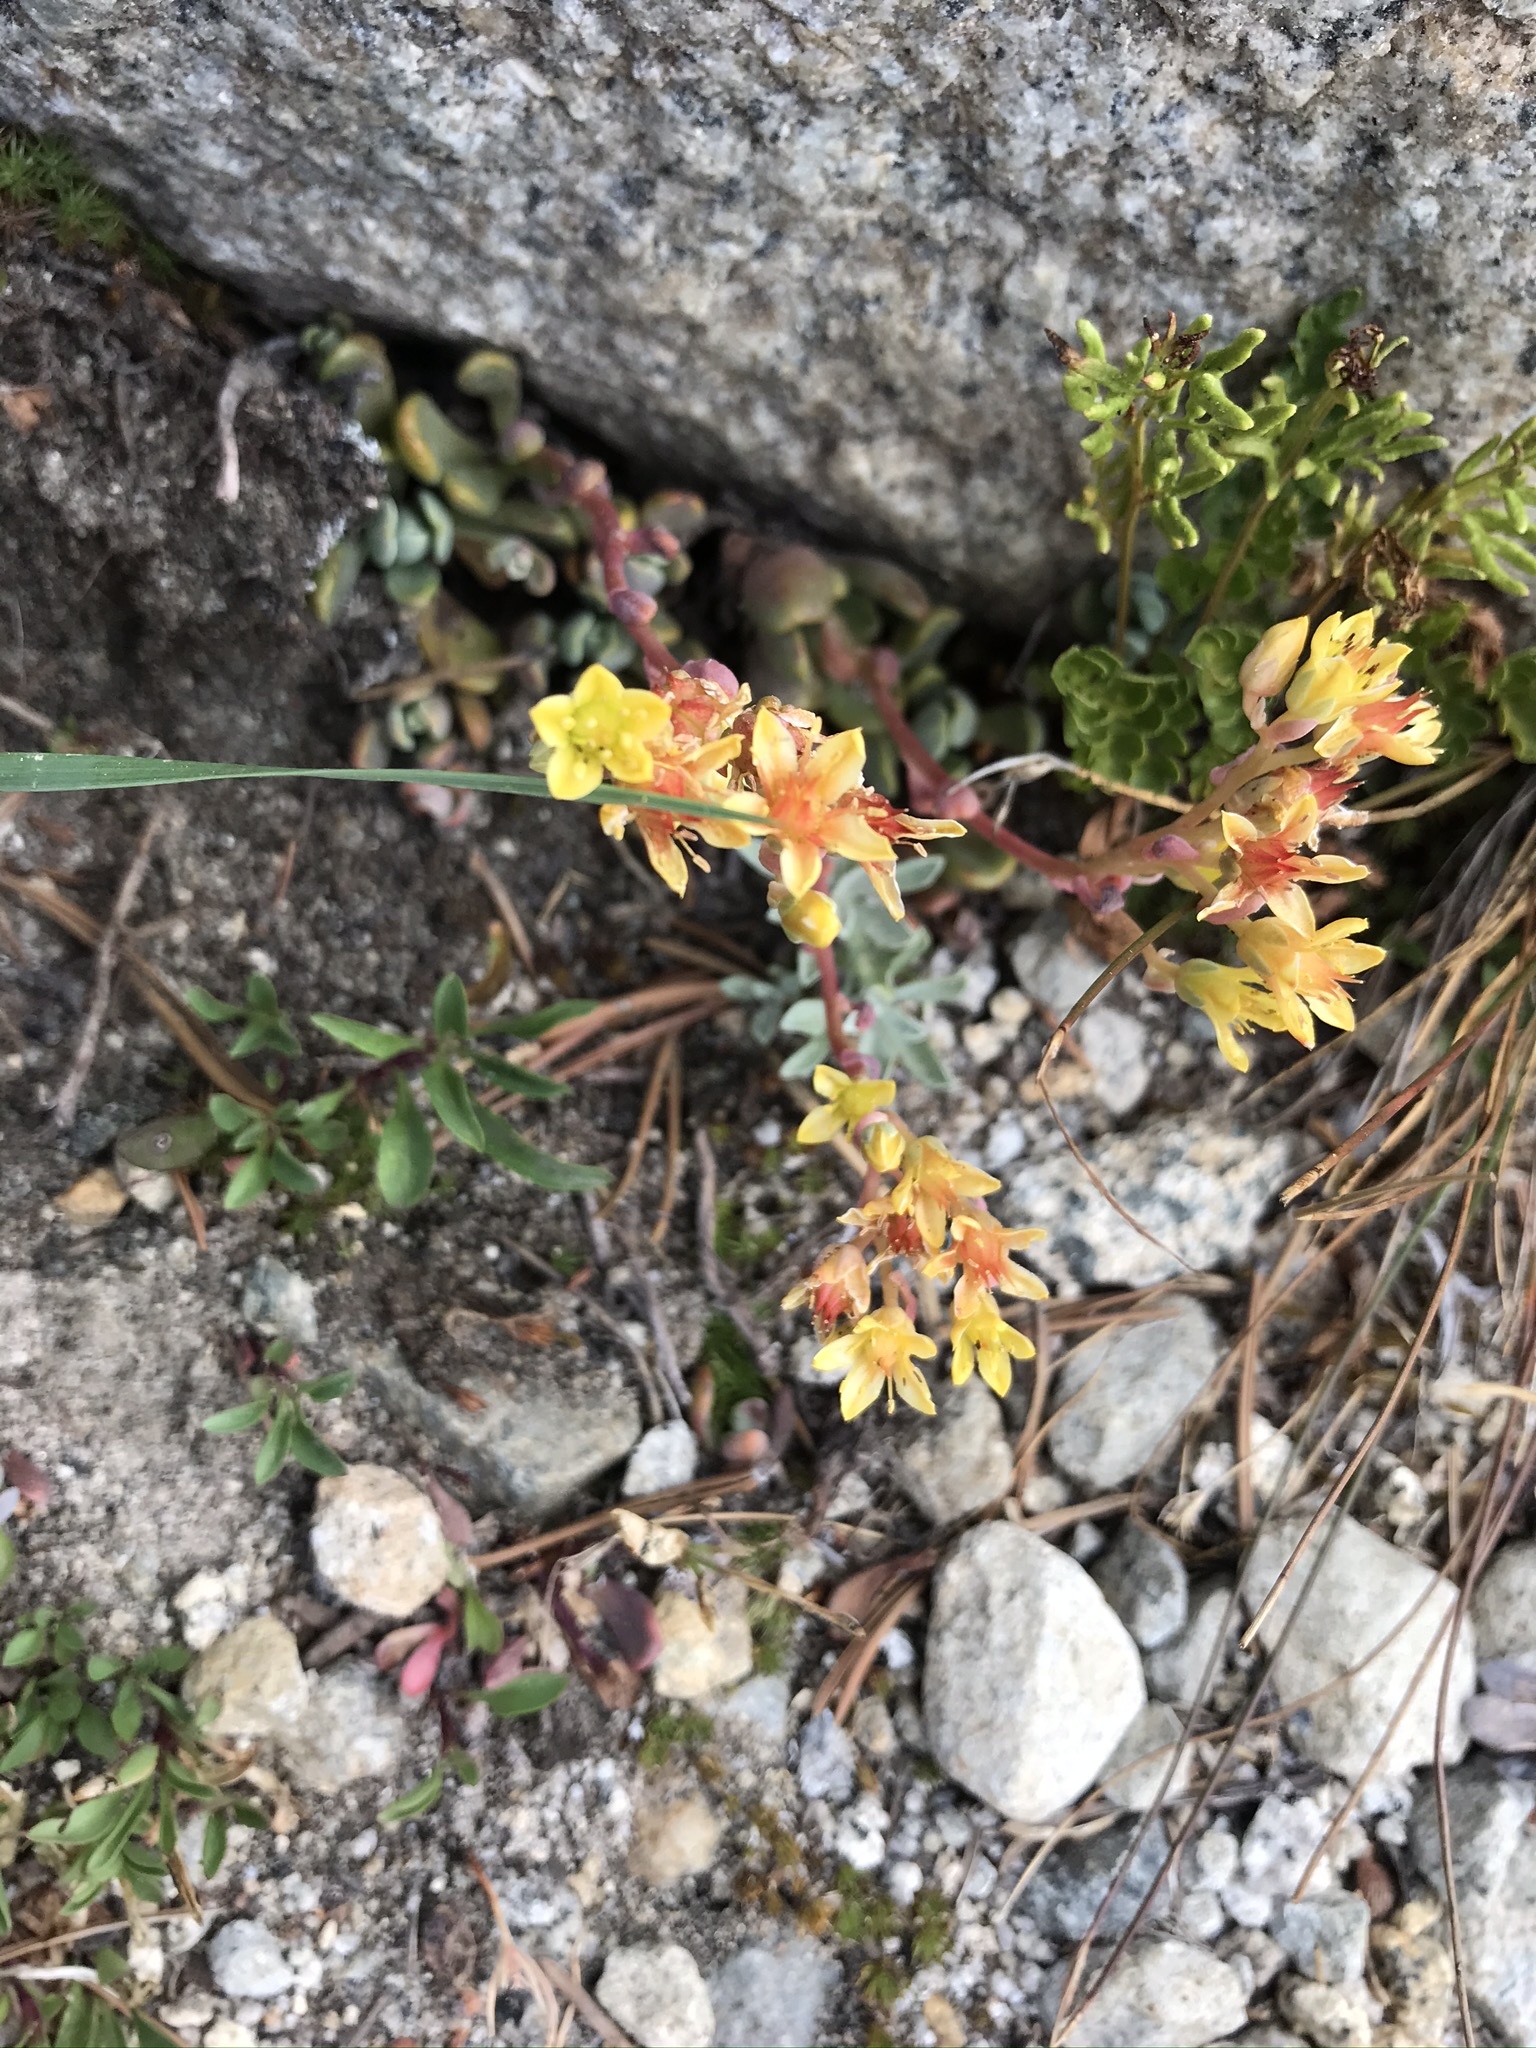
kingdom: Plantae
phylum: Tracheophyta
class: Magnoliopsida
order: Saxifragales
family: Crassulaceae
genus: Sedum
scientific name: Sedum obtusatum
